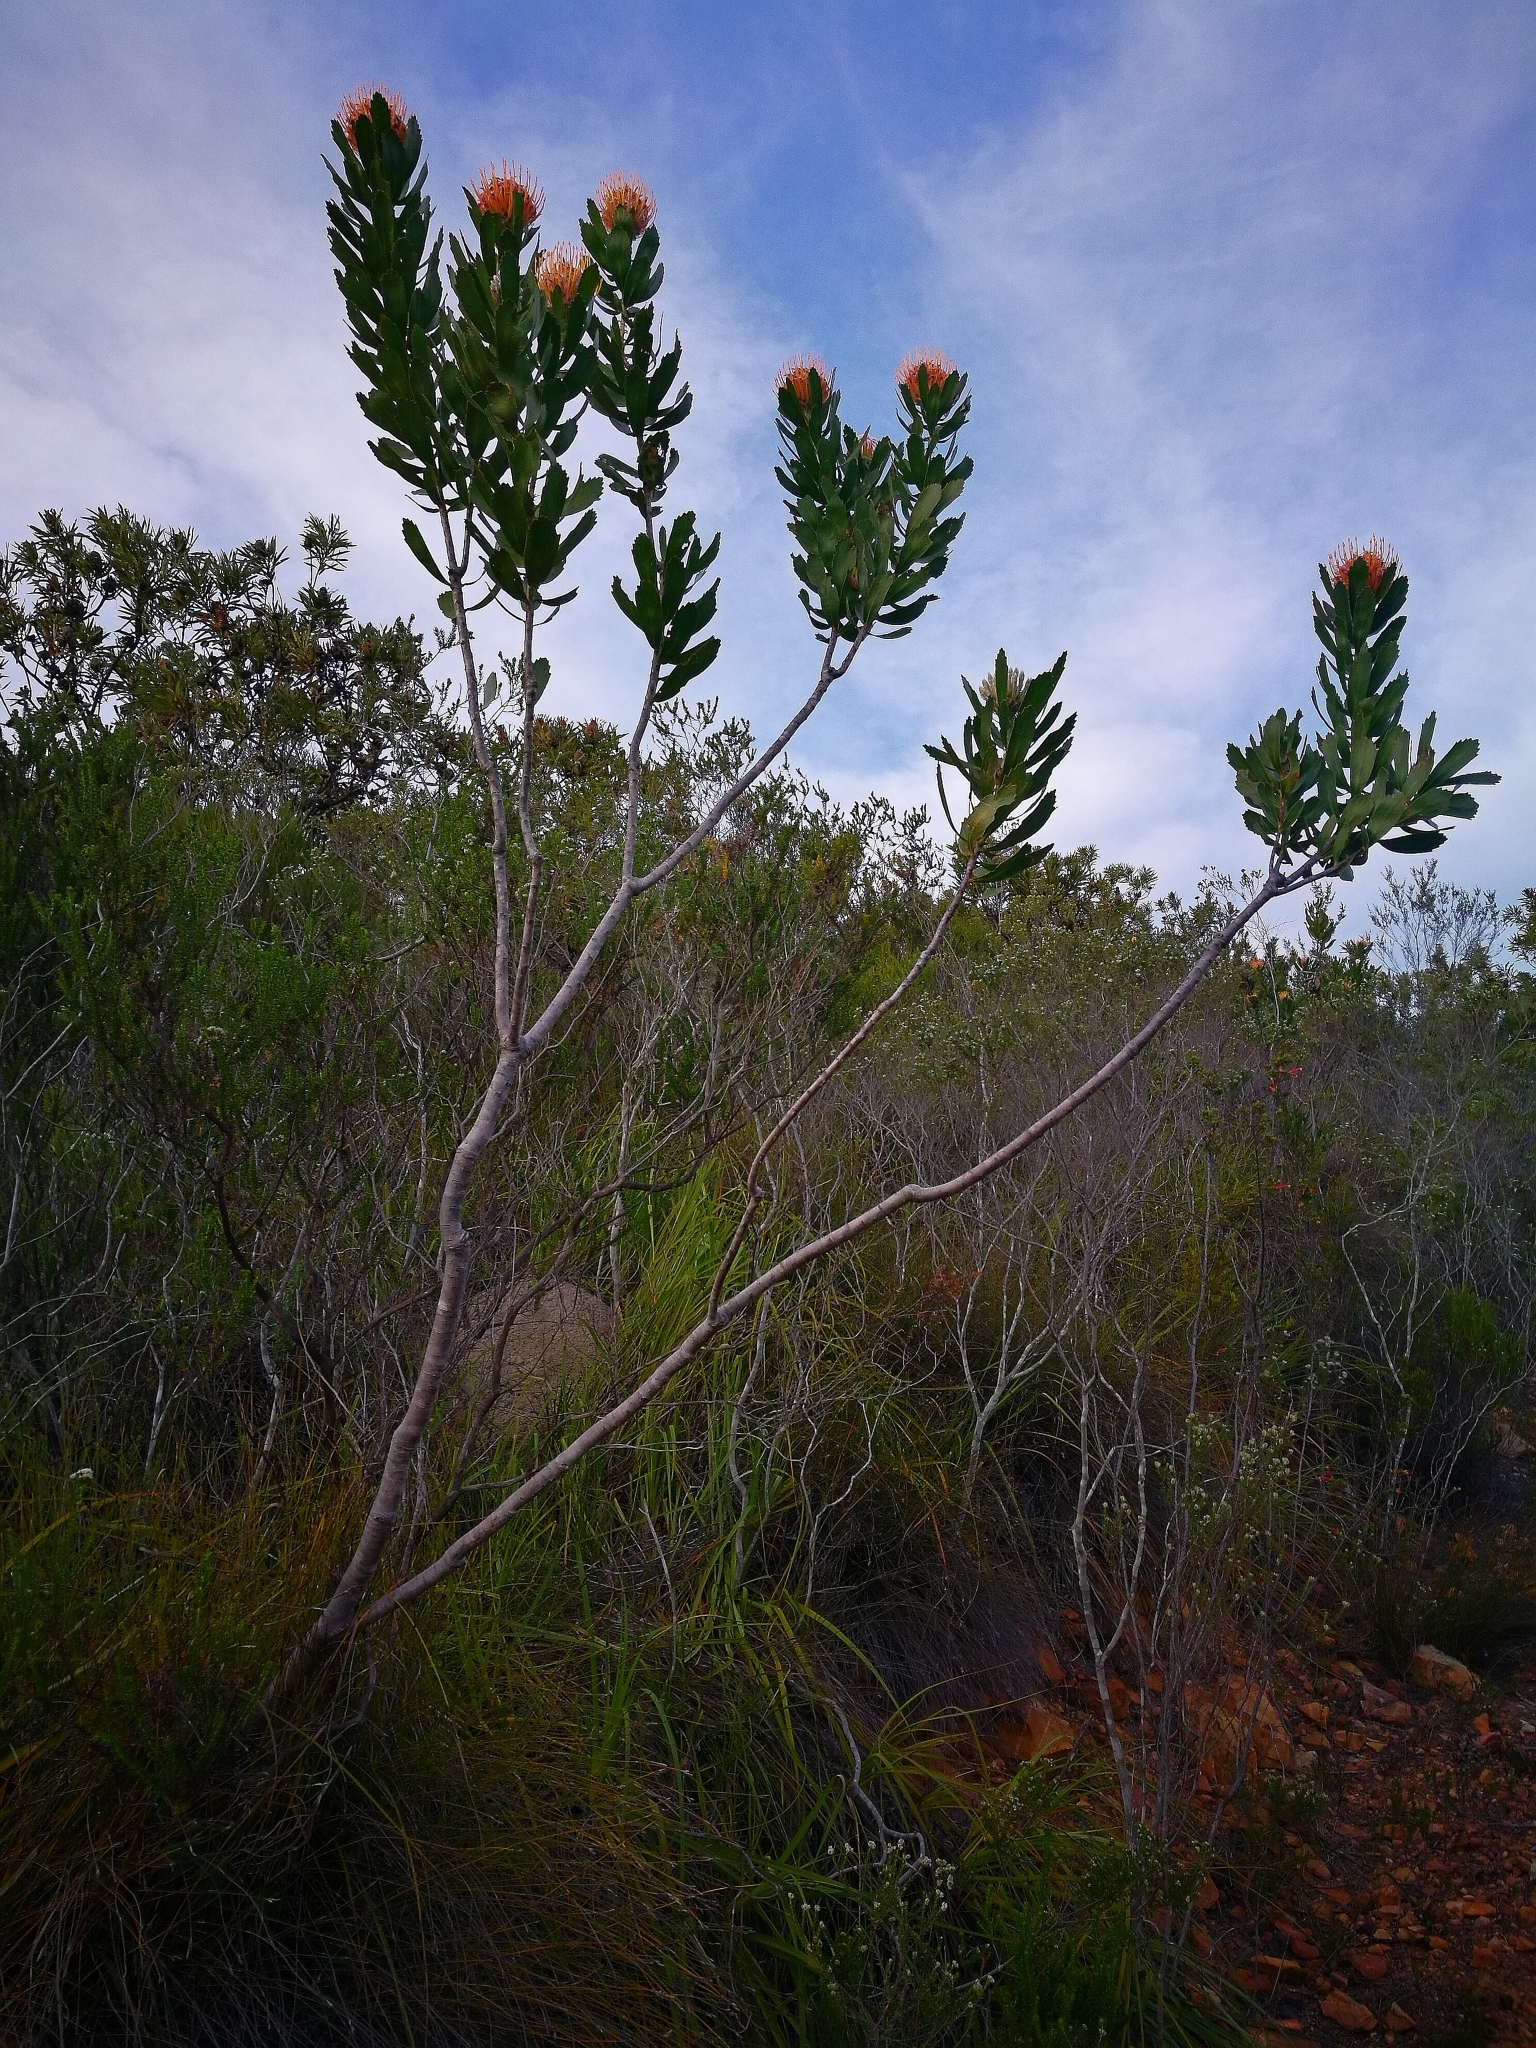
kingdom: Plantae
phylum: Tracheophyta
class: Magnoliopsida
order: Proteales
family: Proteaceae
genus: Leucospermum
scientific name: Leucospermum glabrum
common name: Outeniqua pincushion
